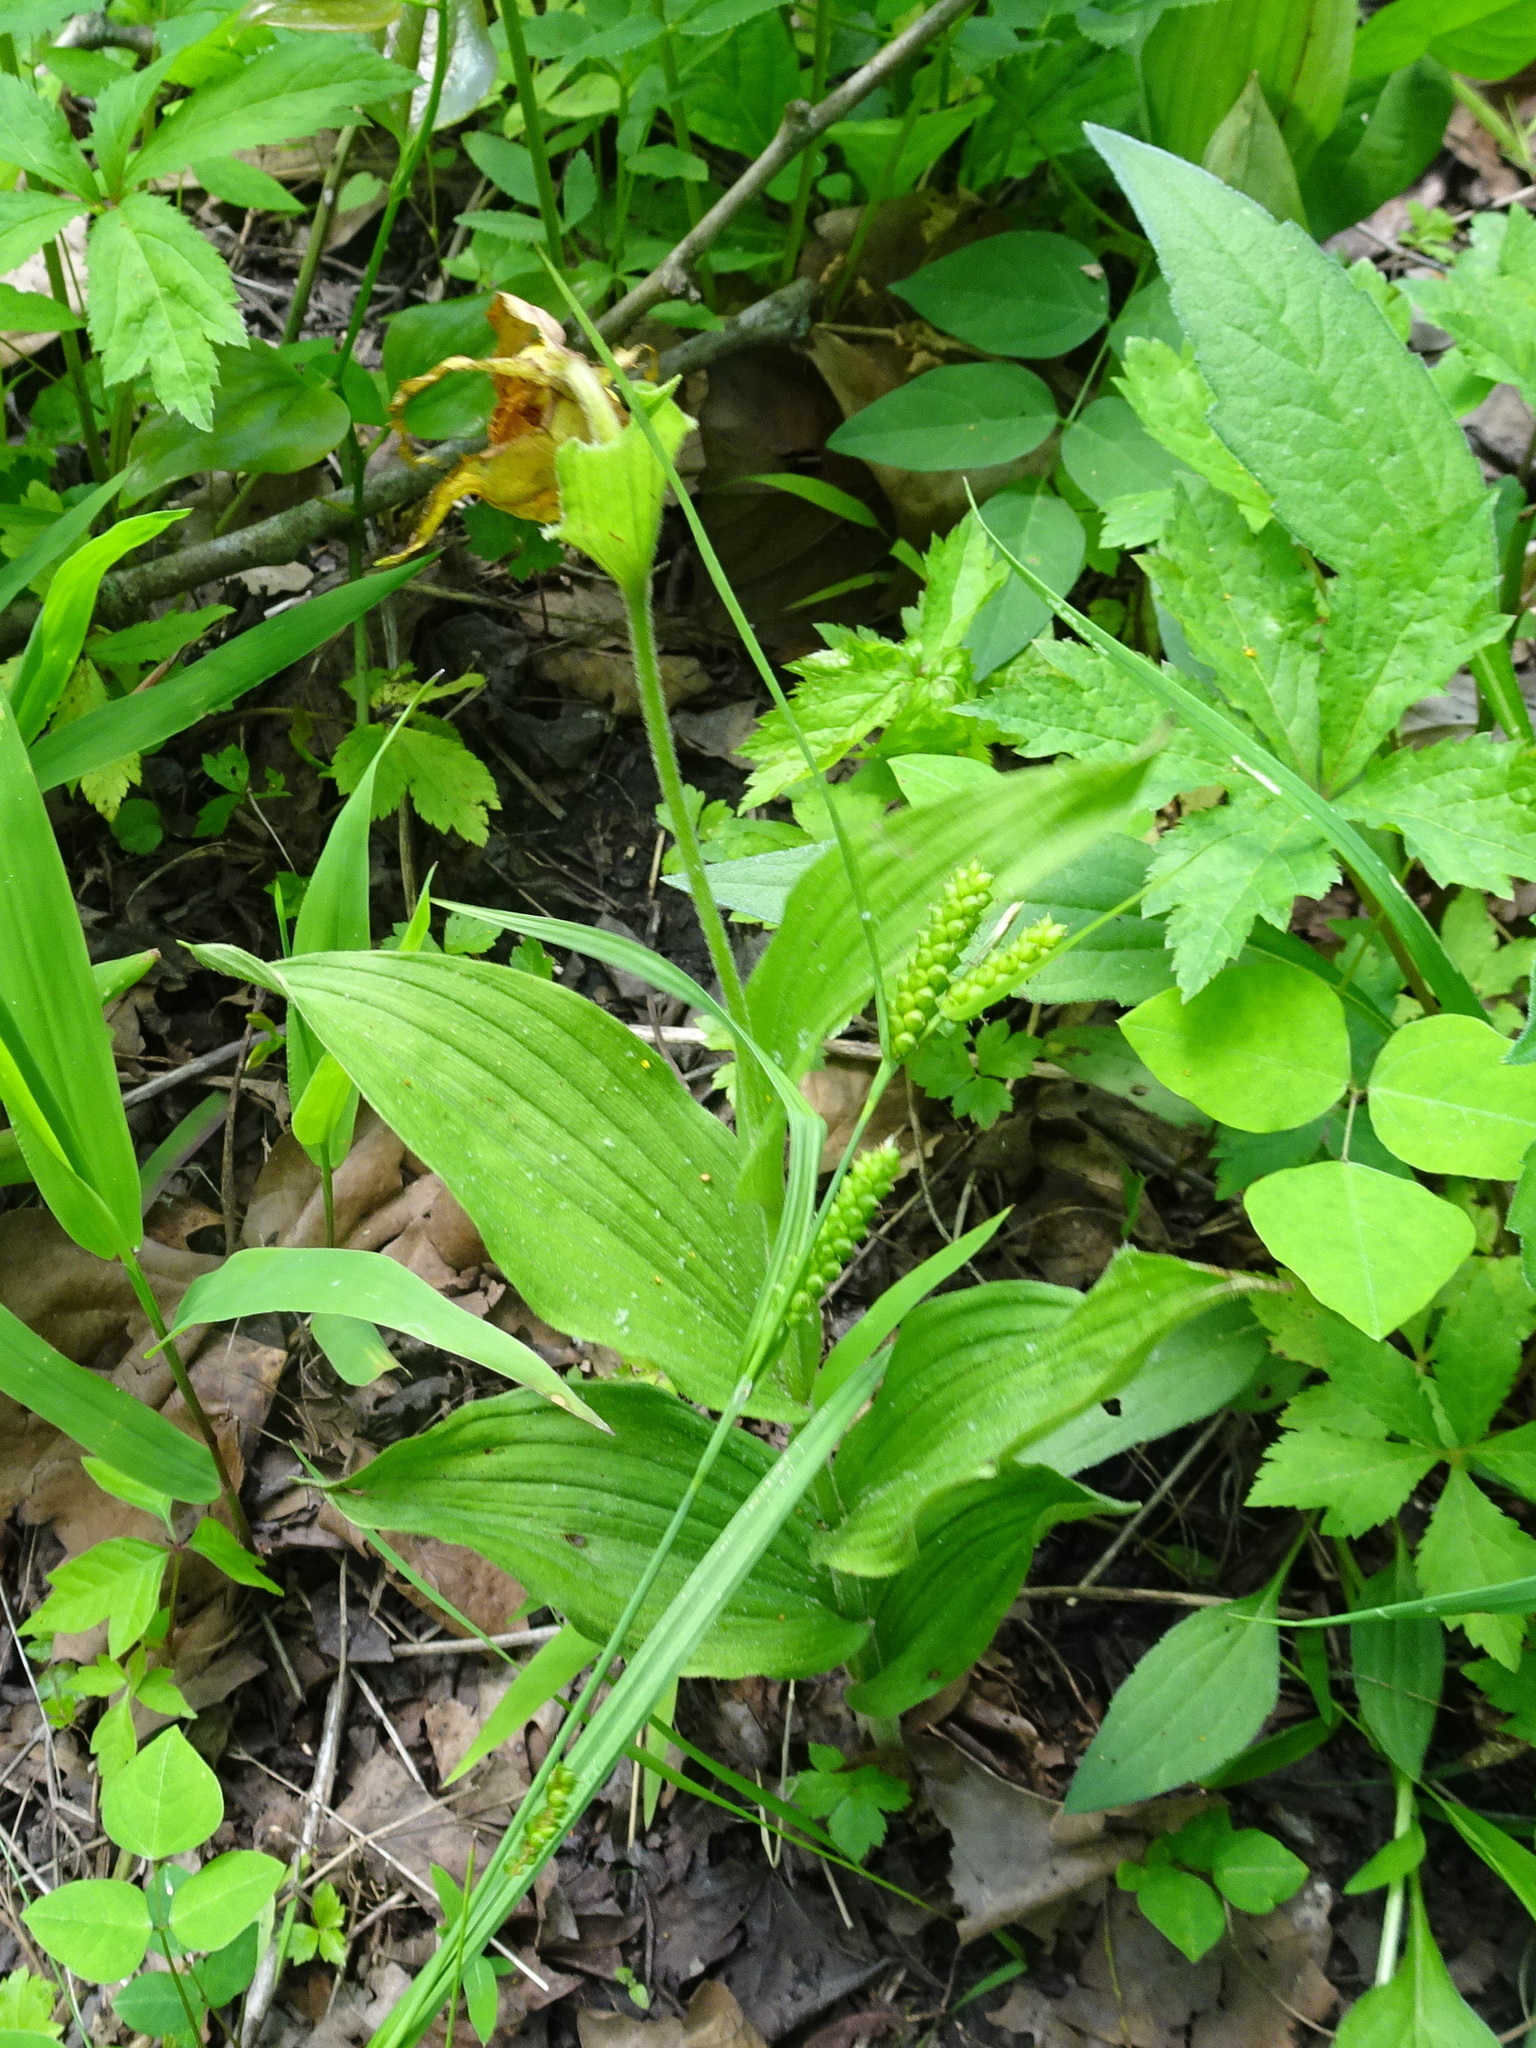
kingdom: Plantae
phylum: Tracheophyta
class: Liliopsida
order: Asparagales
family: Orchidaceae
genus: Cypripedium
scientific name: Cypripedium parviflorum
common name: American yellow lady's-slipper
